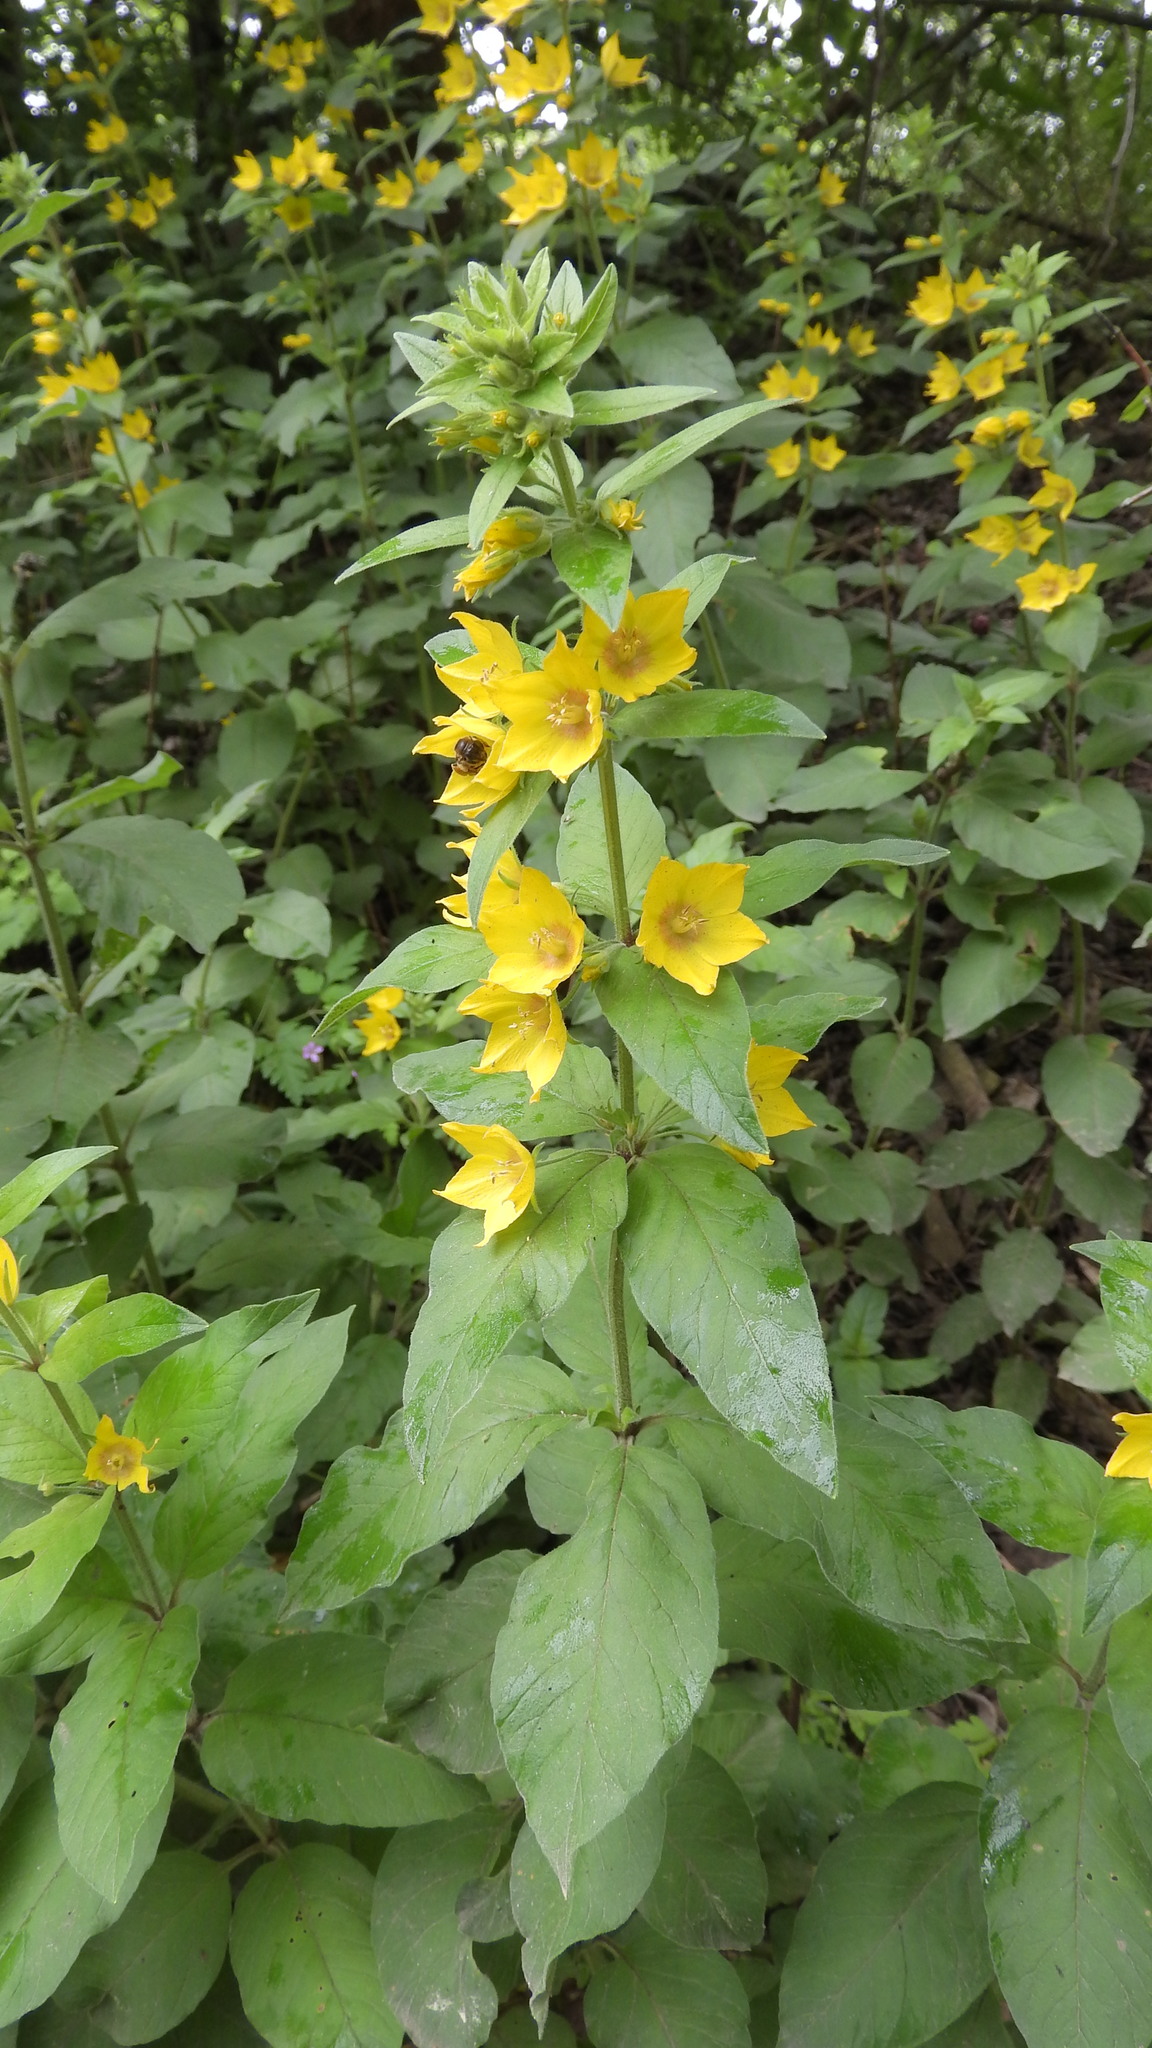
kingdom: Plantae
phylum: Tracheophyta
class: Magnoliopsida
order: Ericales
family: Primulaceae
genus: Lysimachia
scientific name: Lysimachia punctata
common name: Dotted loosestrife
